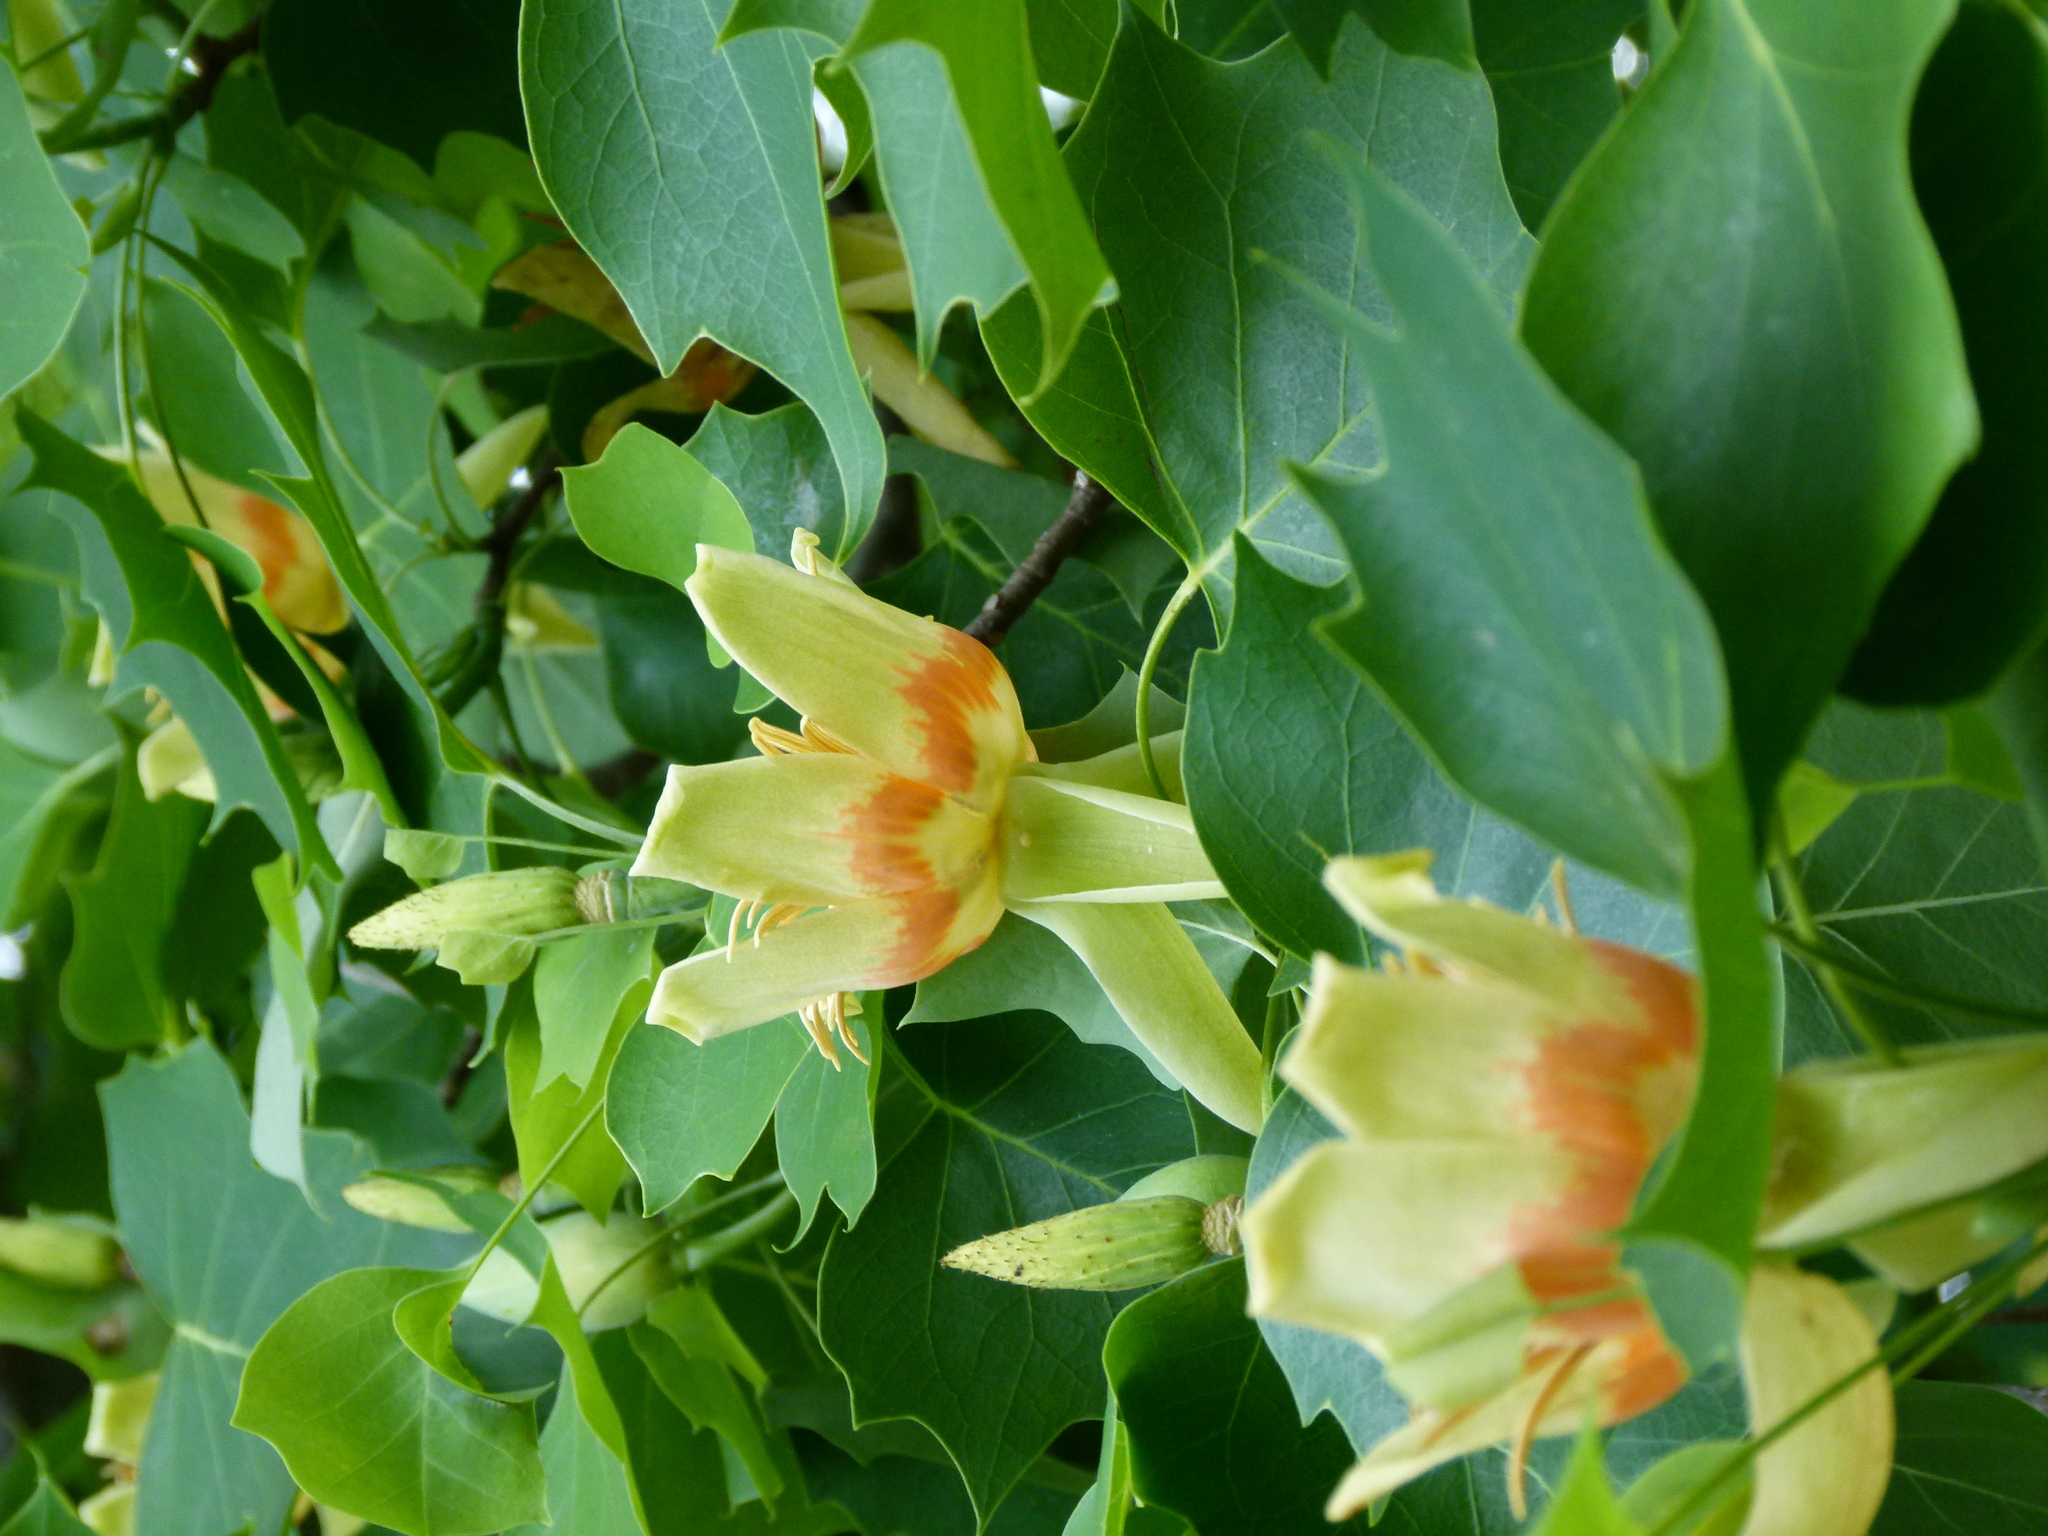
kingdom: Plantae
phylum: Tracheophyta
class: Magnoliopsida
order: Magnoliales
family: Magnoliaceae
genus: Liriodendron
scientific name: Liriodendron tulipifera
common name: Tulip tree
